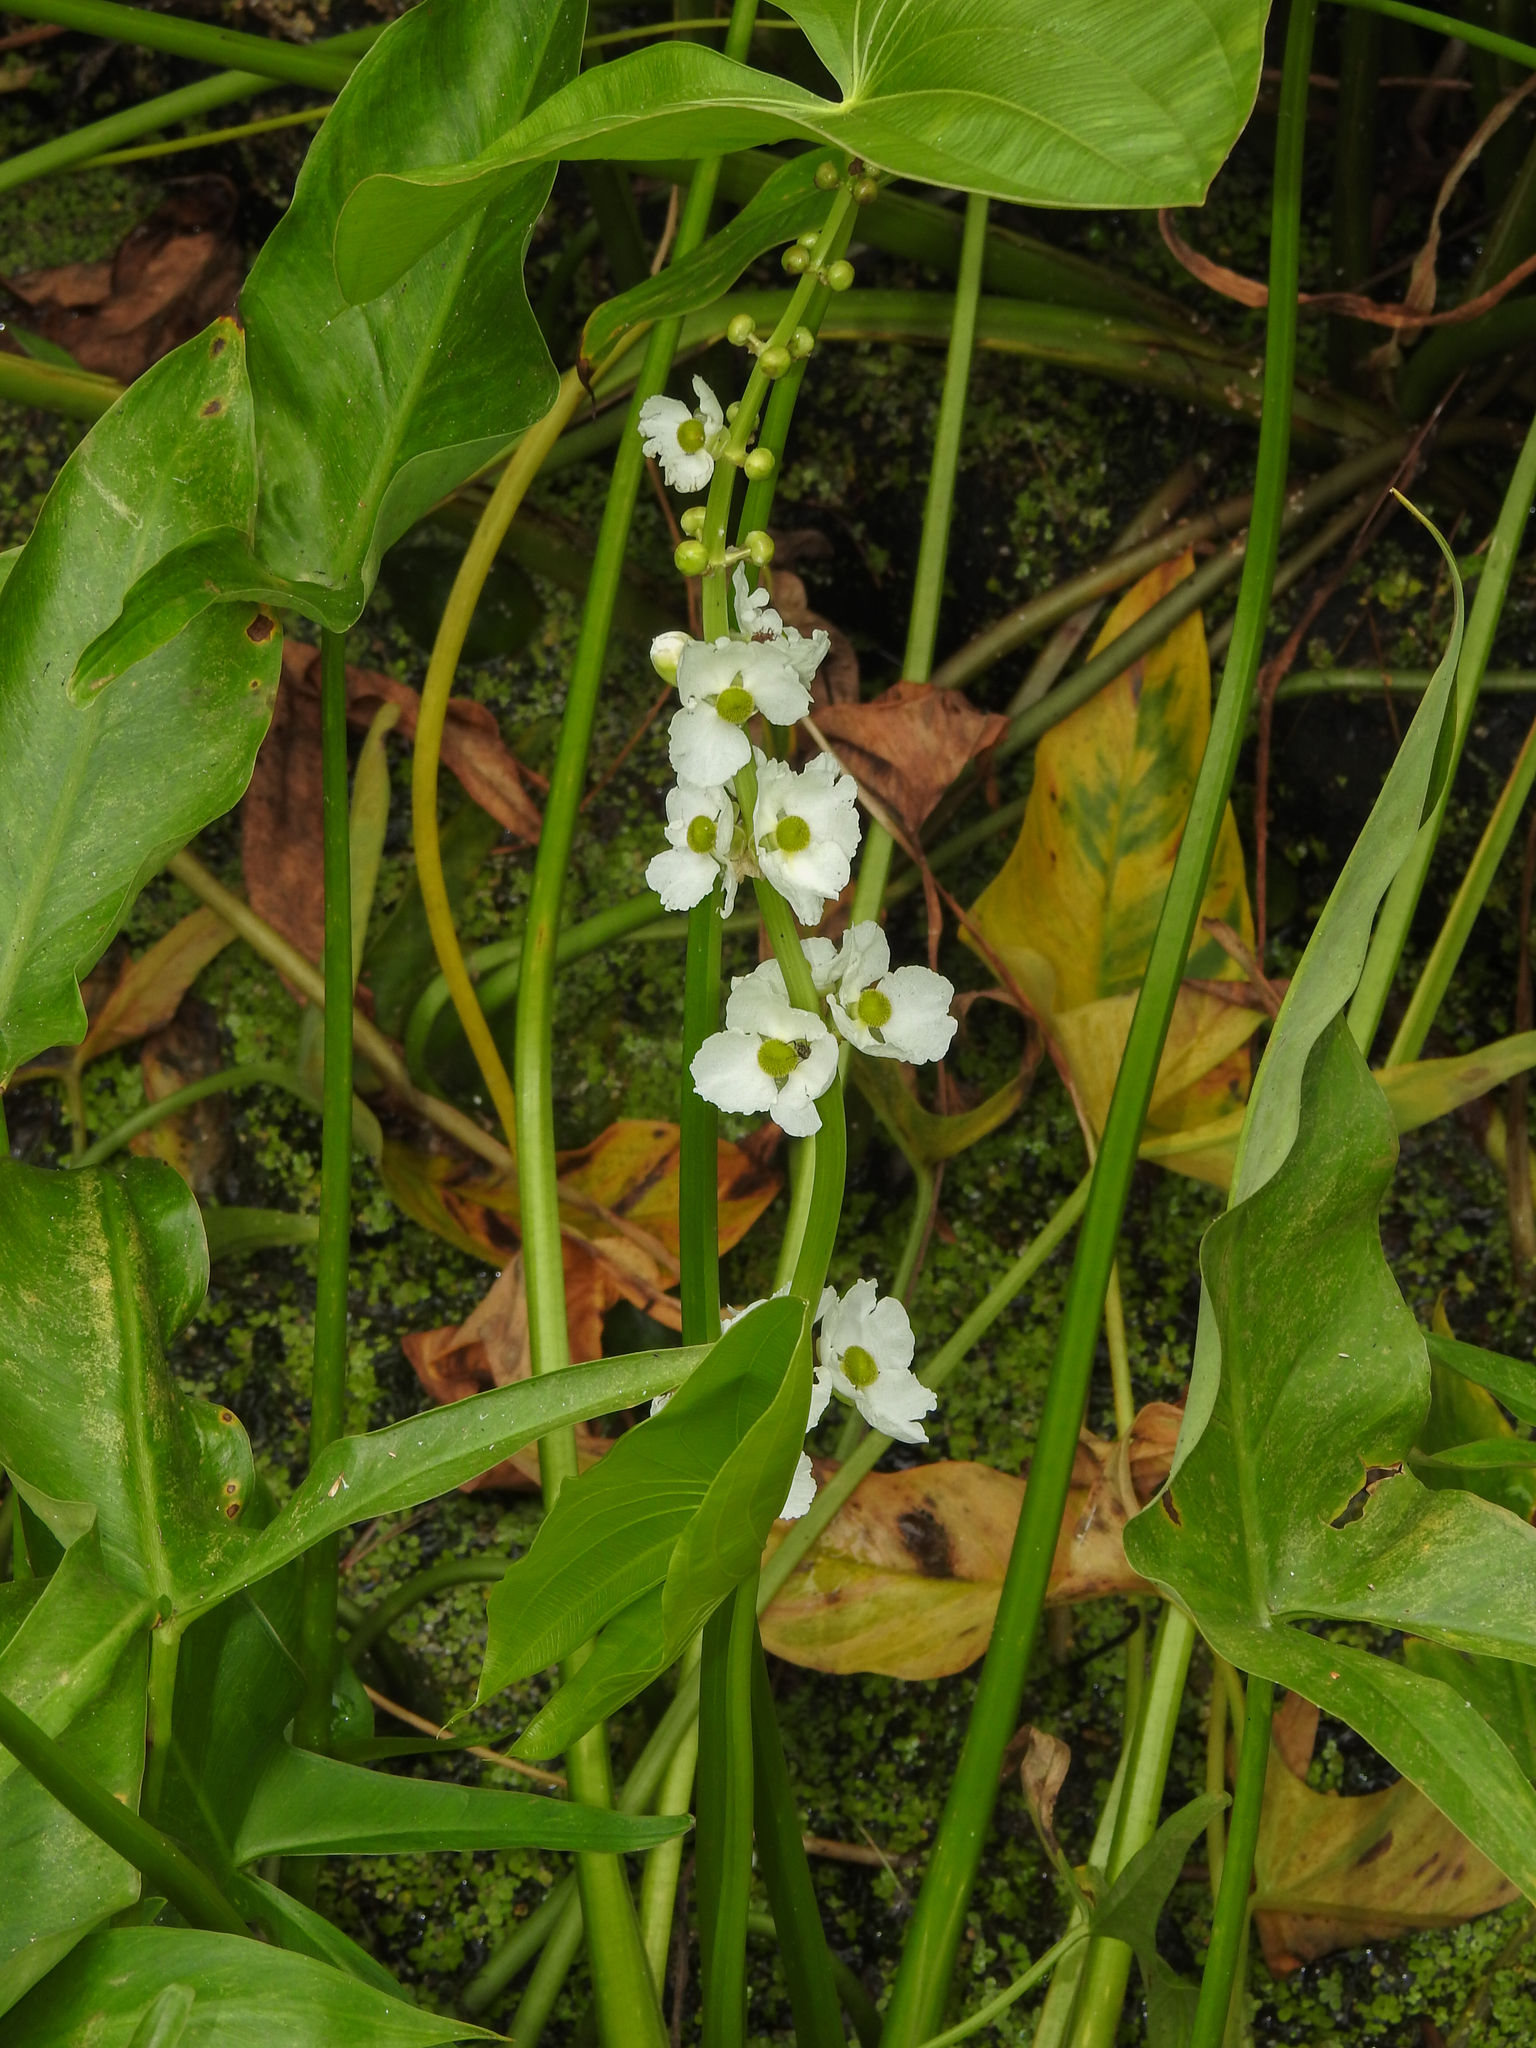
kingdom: Plantae
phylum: Tracheophyta
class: Liliopsida
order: Alismatales
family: Alismataceae
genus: Sagittaria
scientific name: Sagittaria latifolia
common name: Duck-potato
